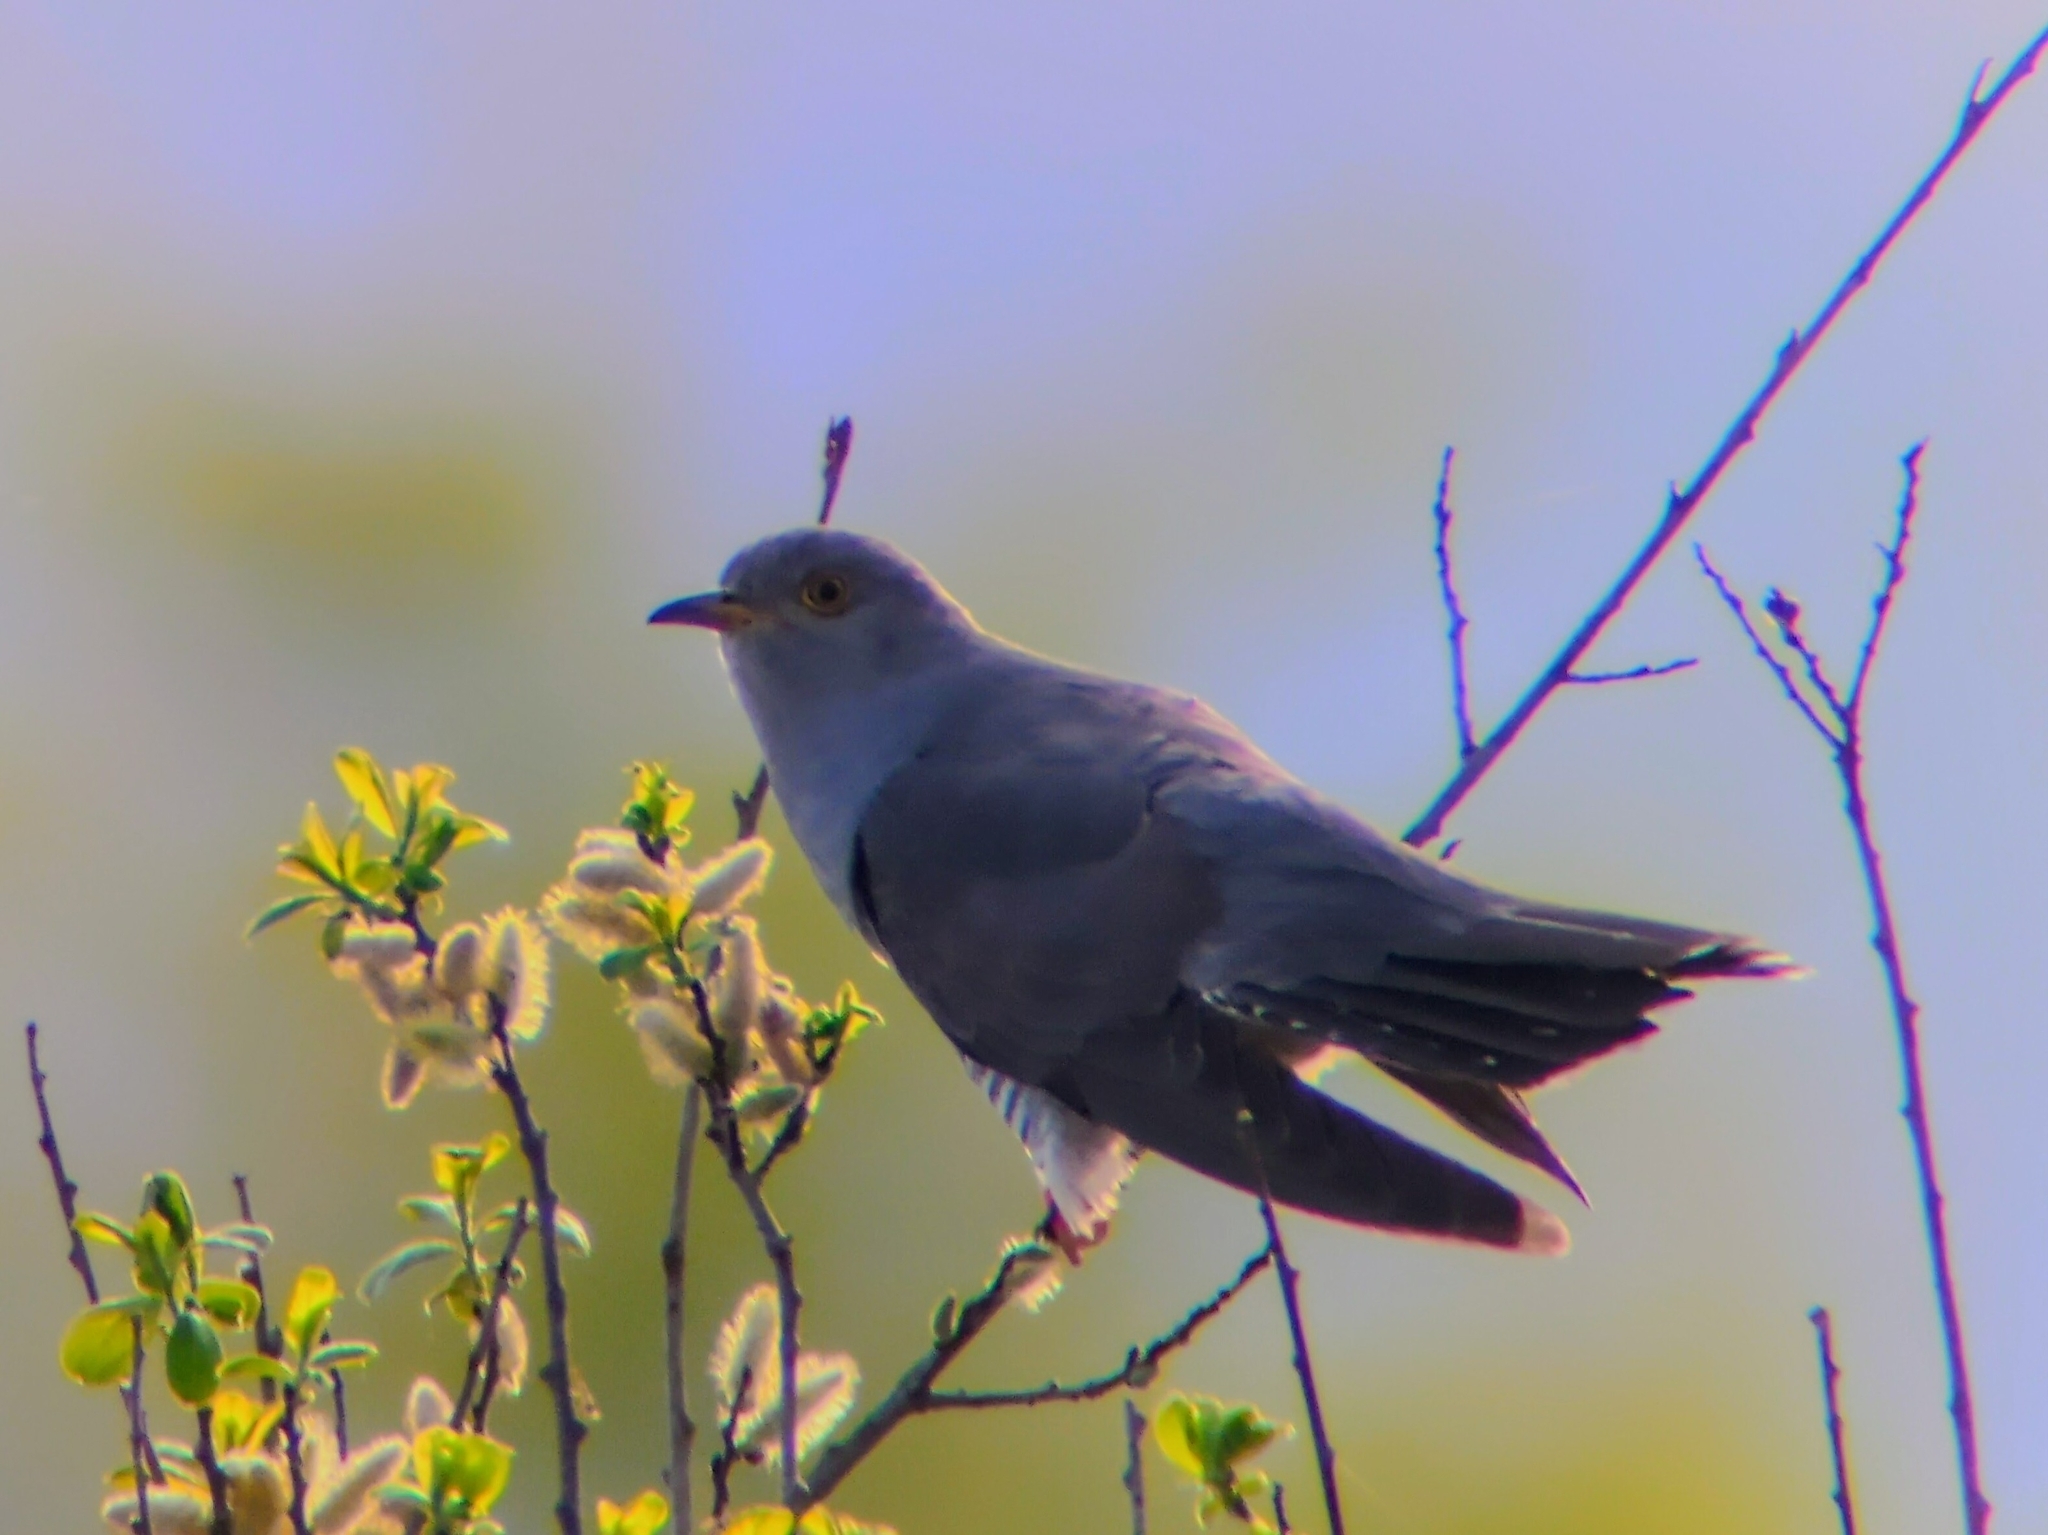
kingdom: Animalia
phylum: Chordata
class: Aves
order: Cuculiformes
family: Cuculidae
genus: Cuculus
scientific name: Cuculus canorus
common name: Common cuckoo
